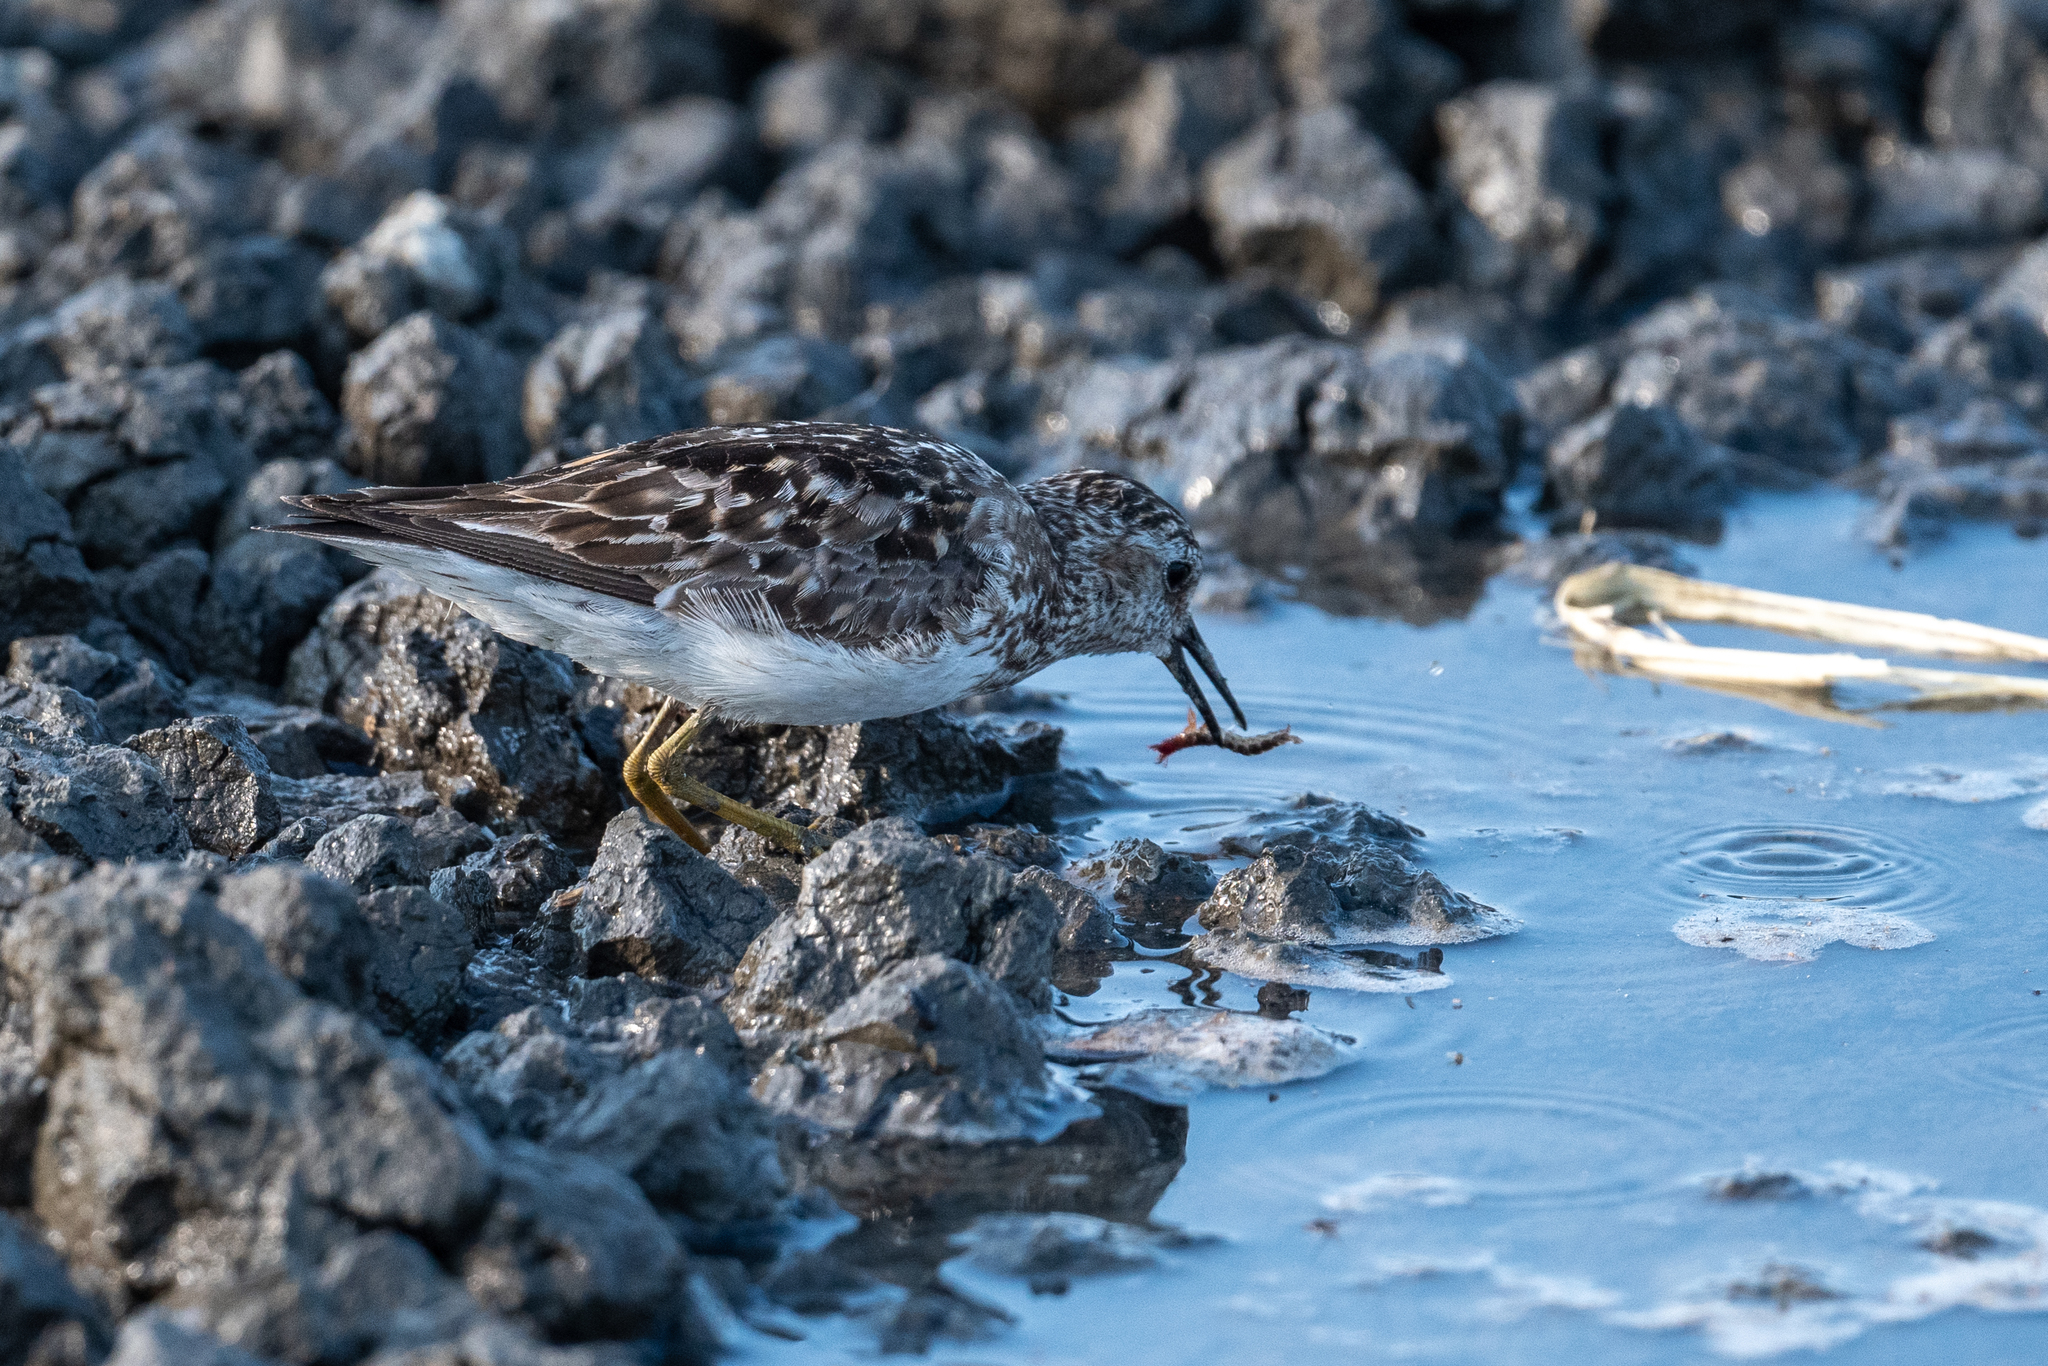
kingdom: Animalia
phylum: Chordata
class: Aves
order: Charadriiformes
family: Scolopacidae
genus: Calidris
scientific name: Calidris minutilla
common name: Least sandpiper
